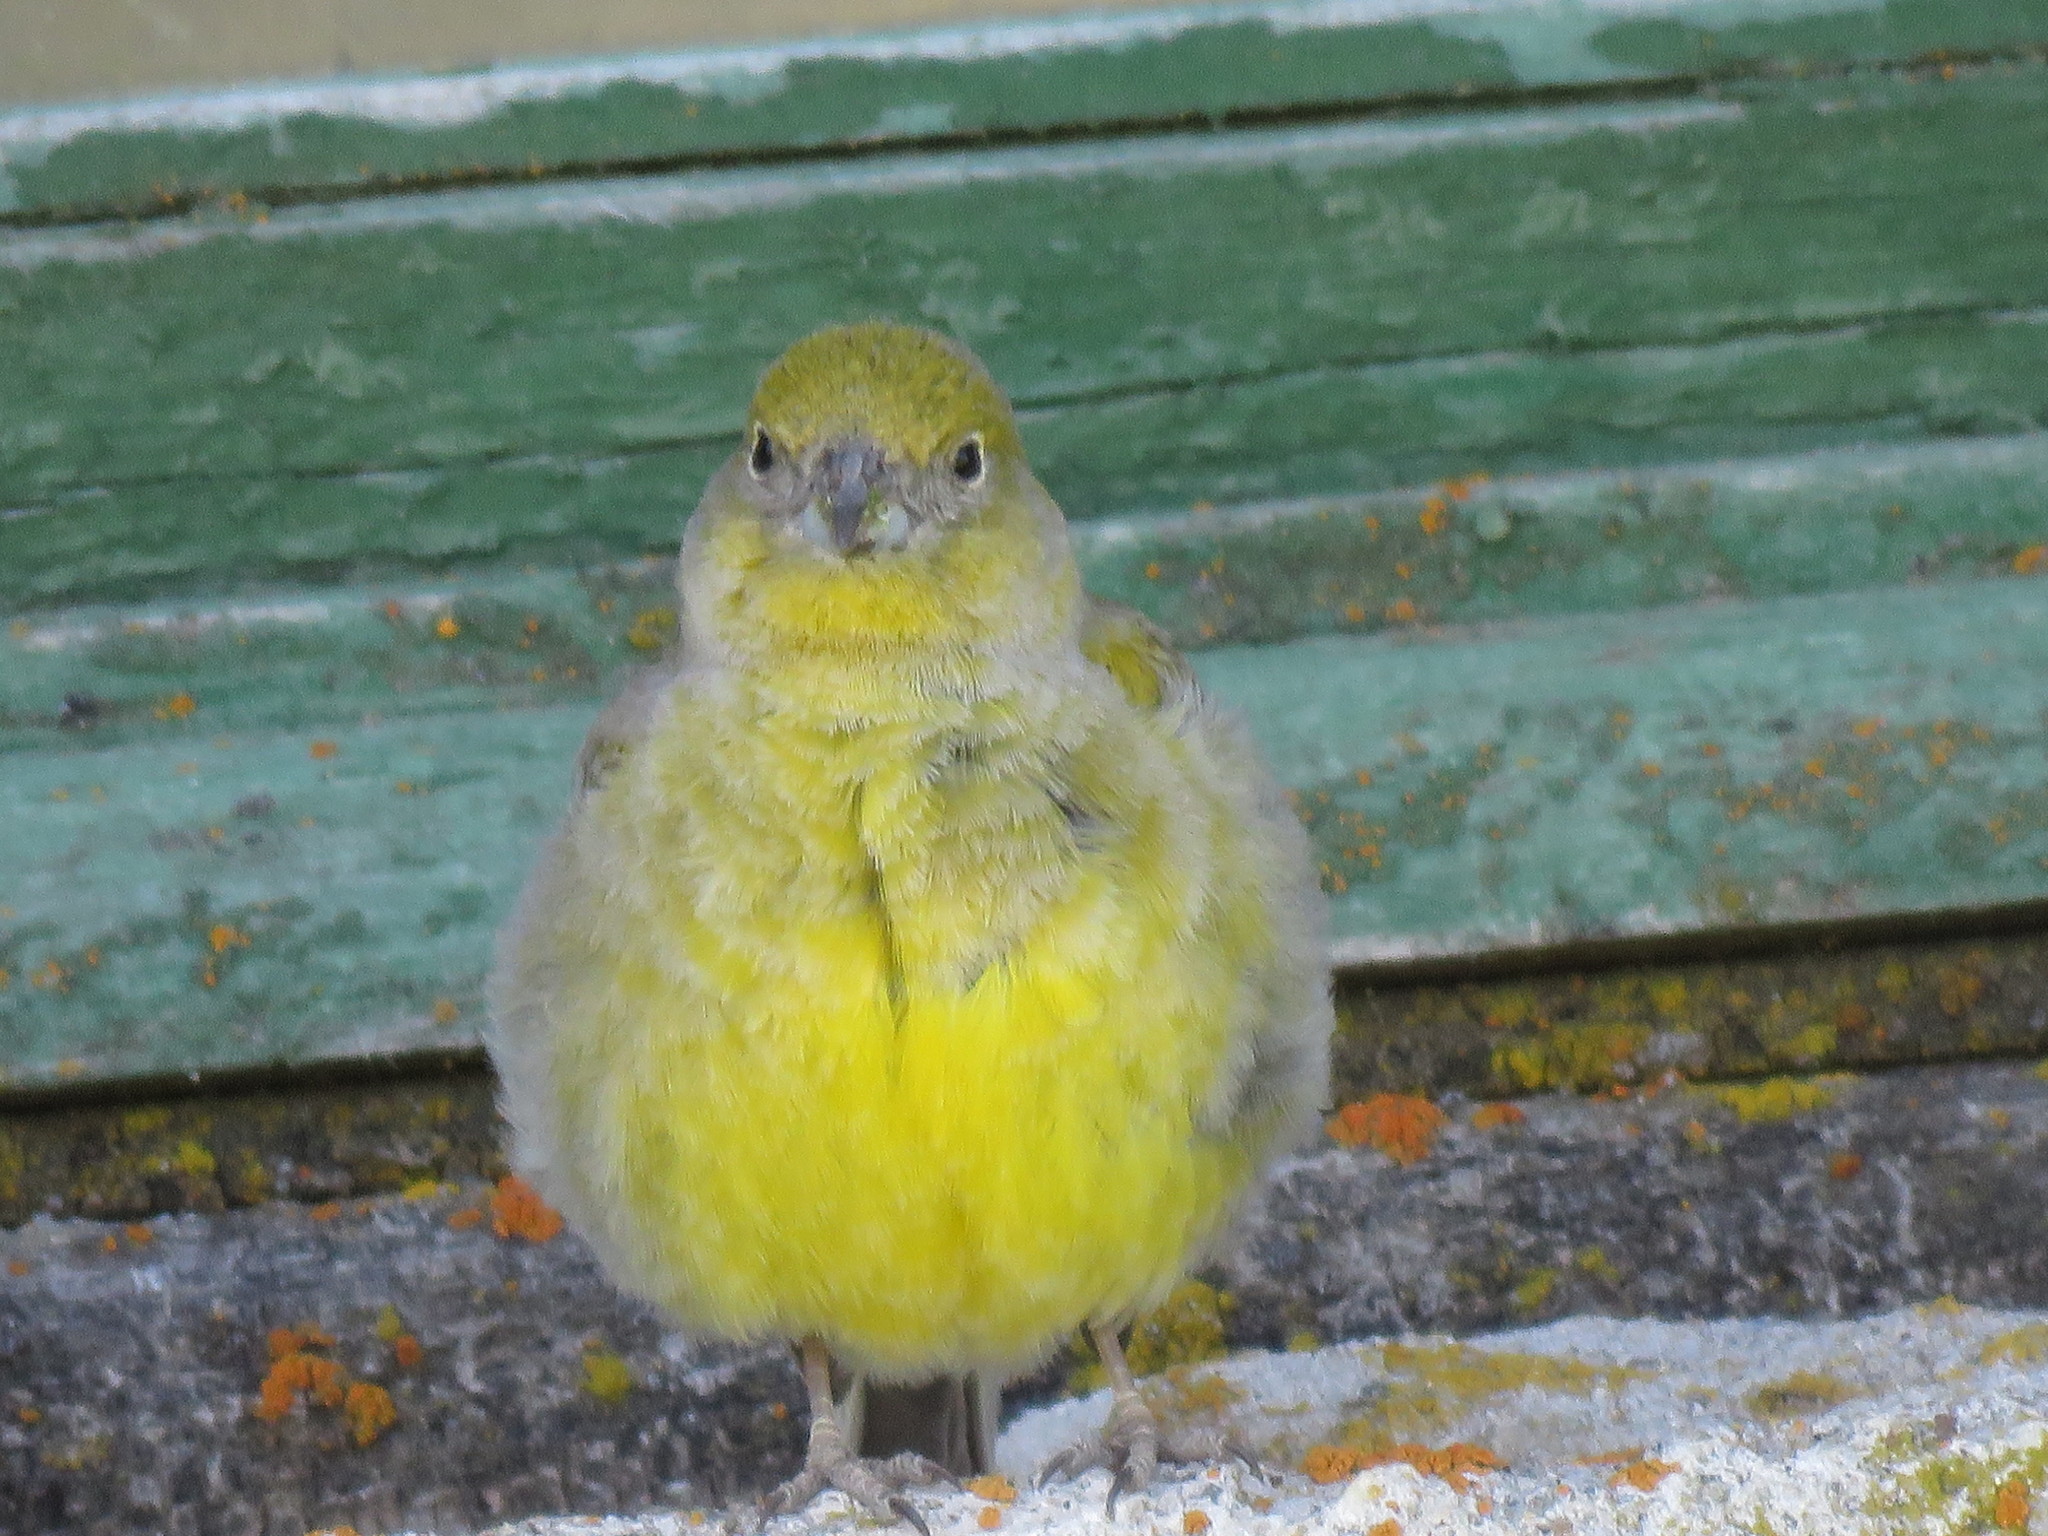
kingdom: Animalia
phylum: Chordata
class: Aves
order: Passeriformes
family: Thraupidae
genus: Sicalis
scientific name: Sicalis auriventris
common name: Greater yellow finch
